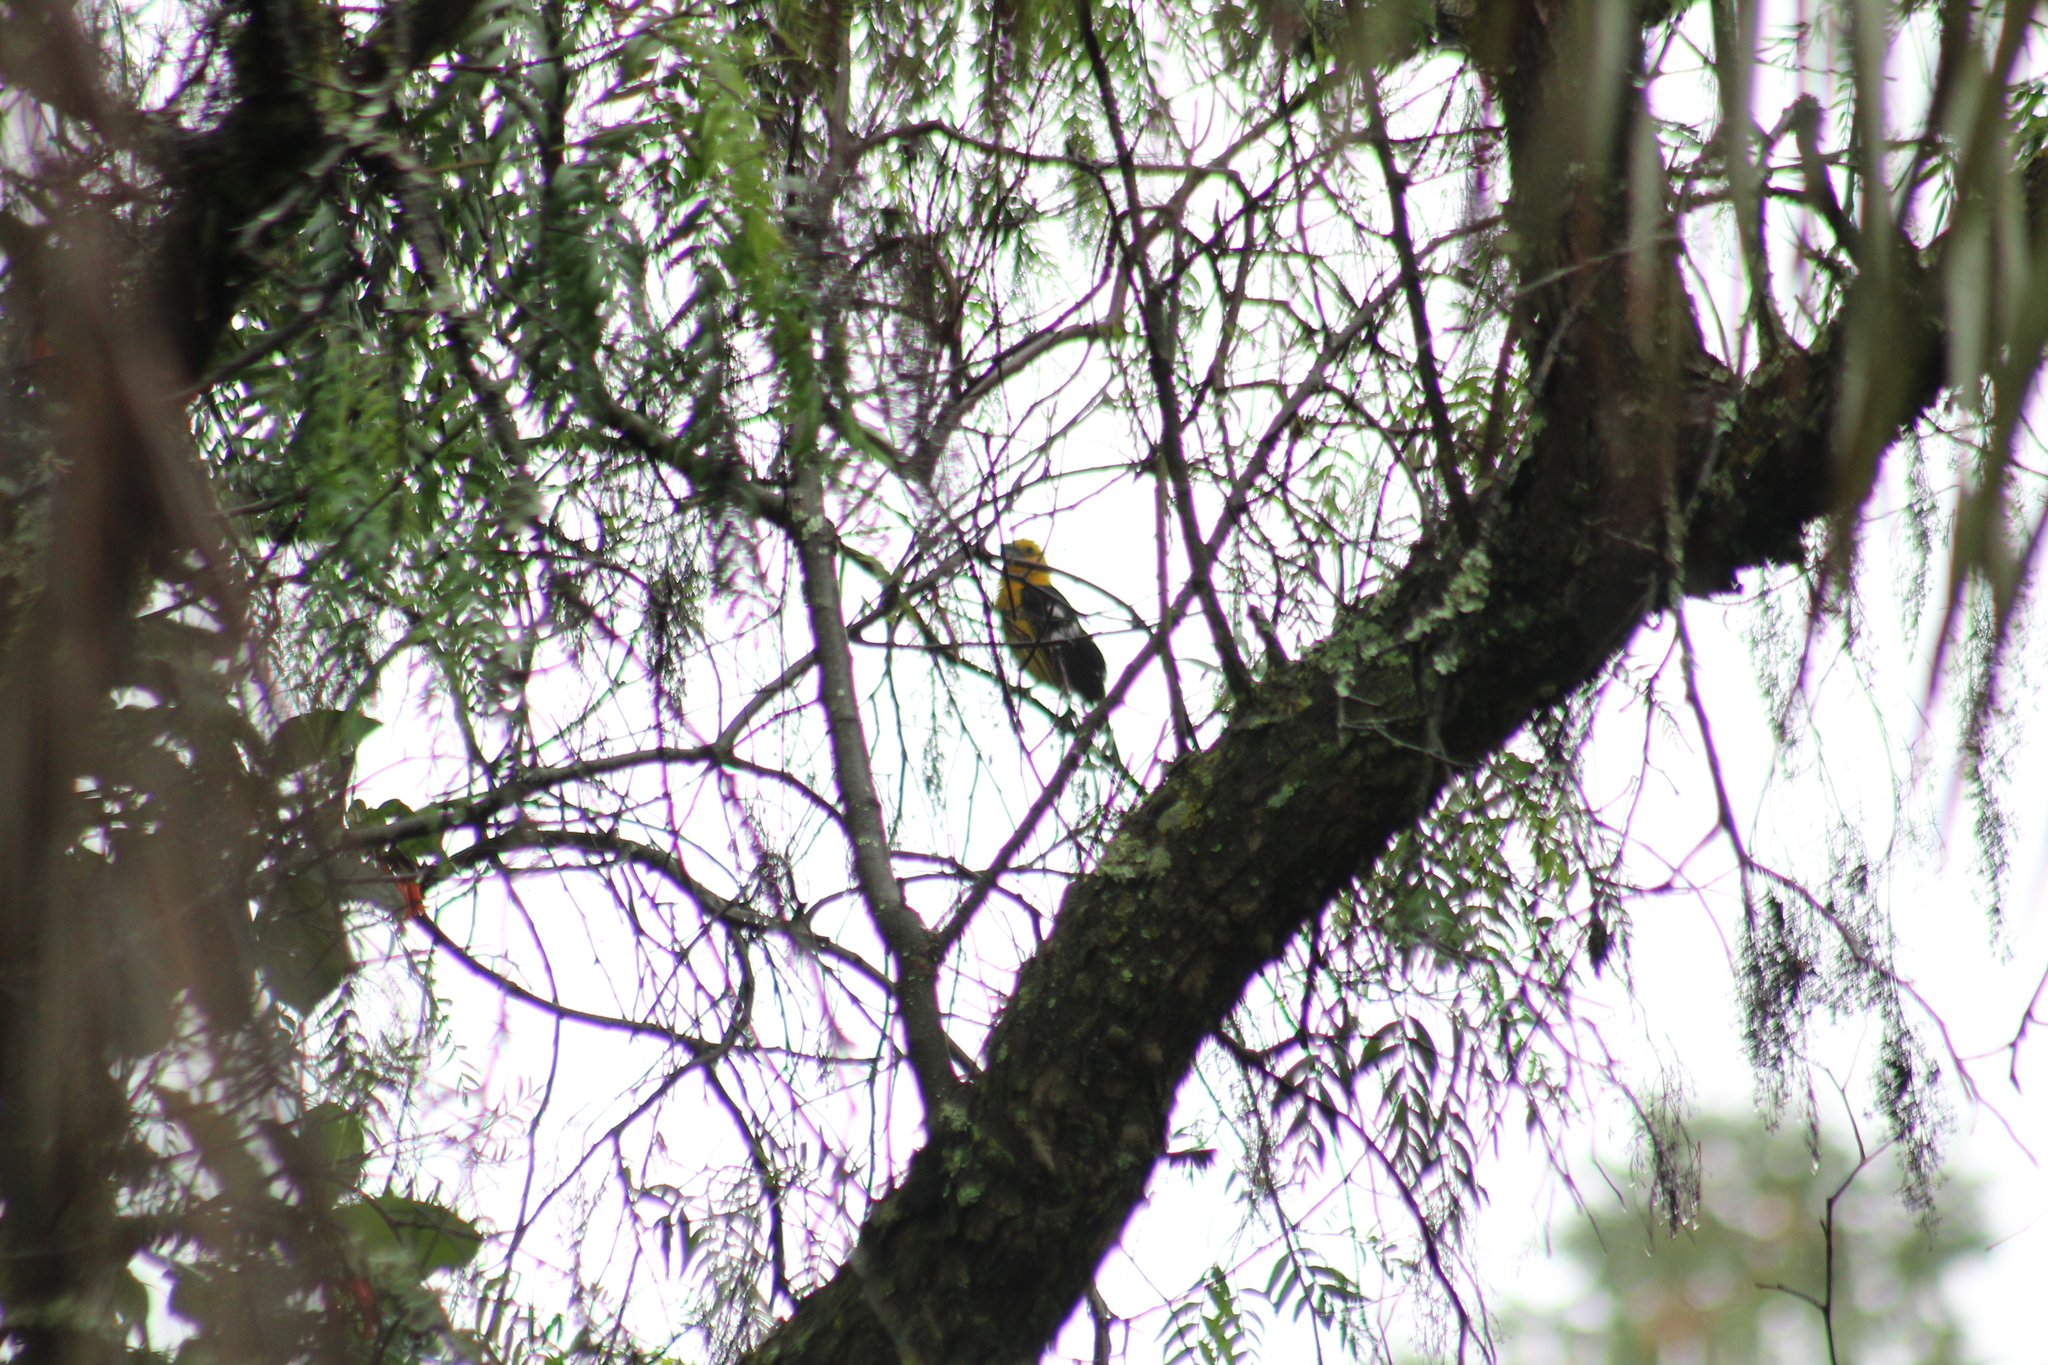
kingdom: Animalia
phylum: Chordata
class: Aves
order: Passeriformes
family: Cardinalidae
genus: Pheucticus
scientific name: Pheucticus chrysogaster
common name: Golden grosbeak
